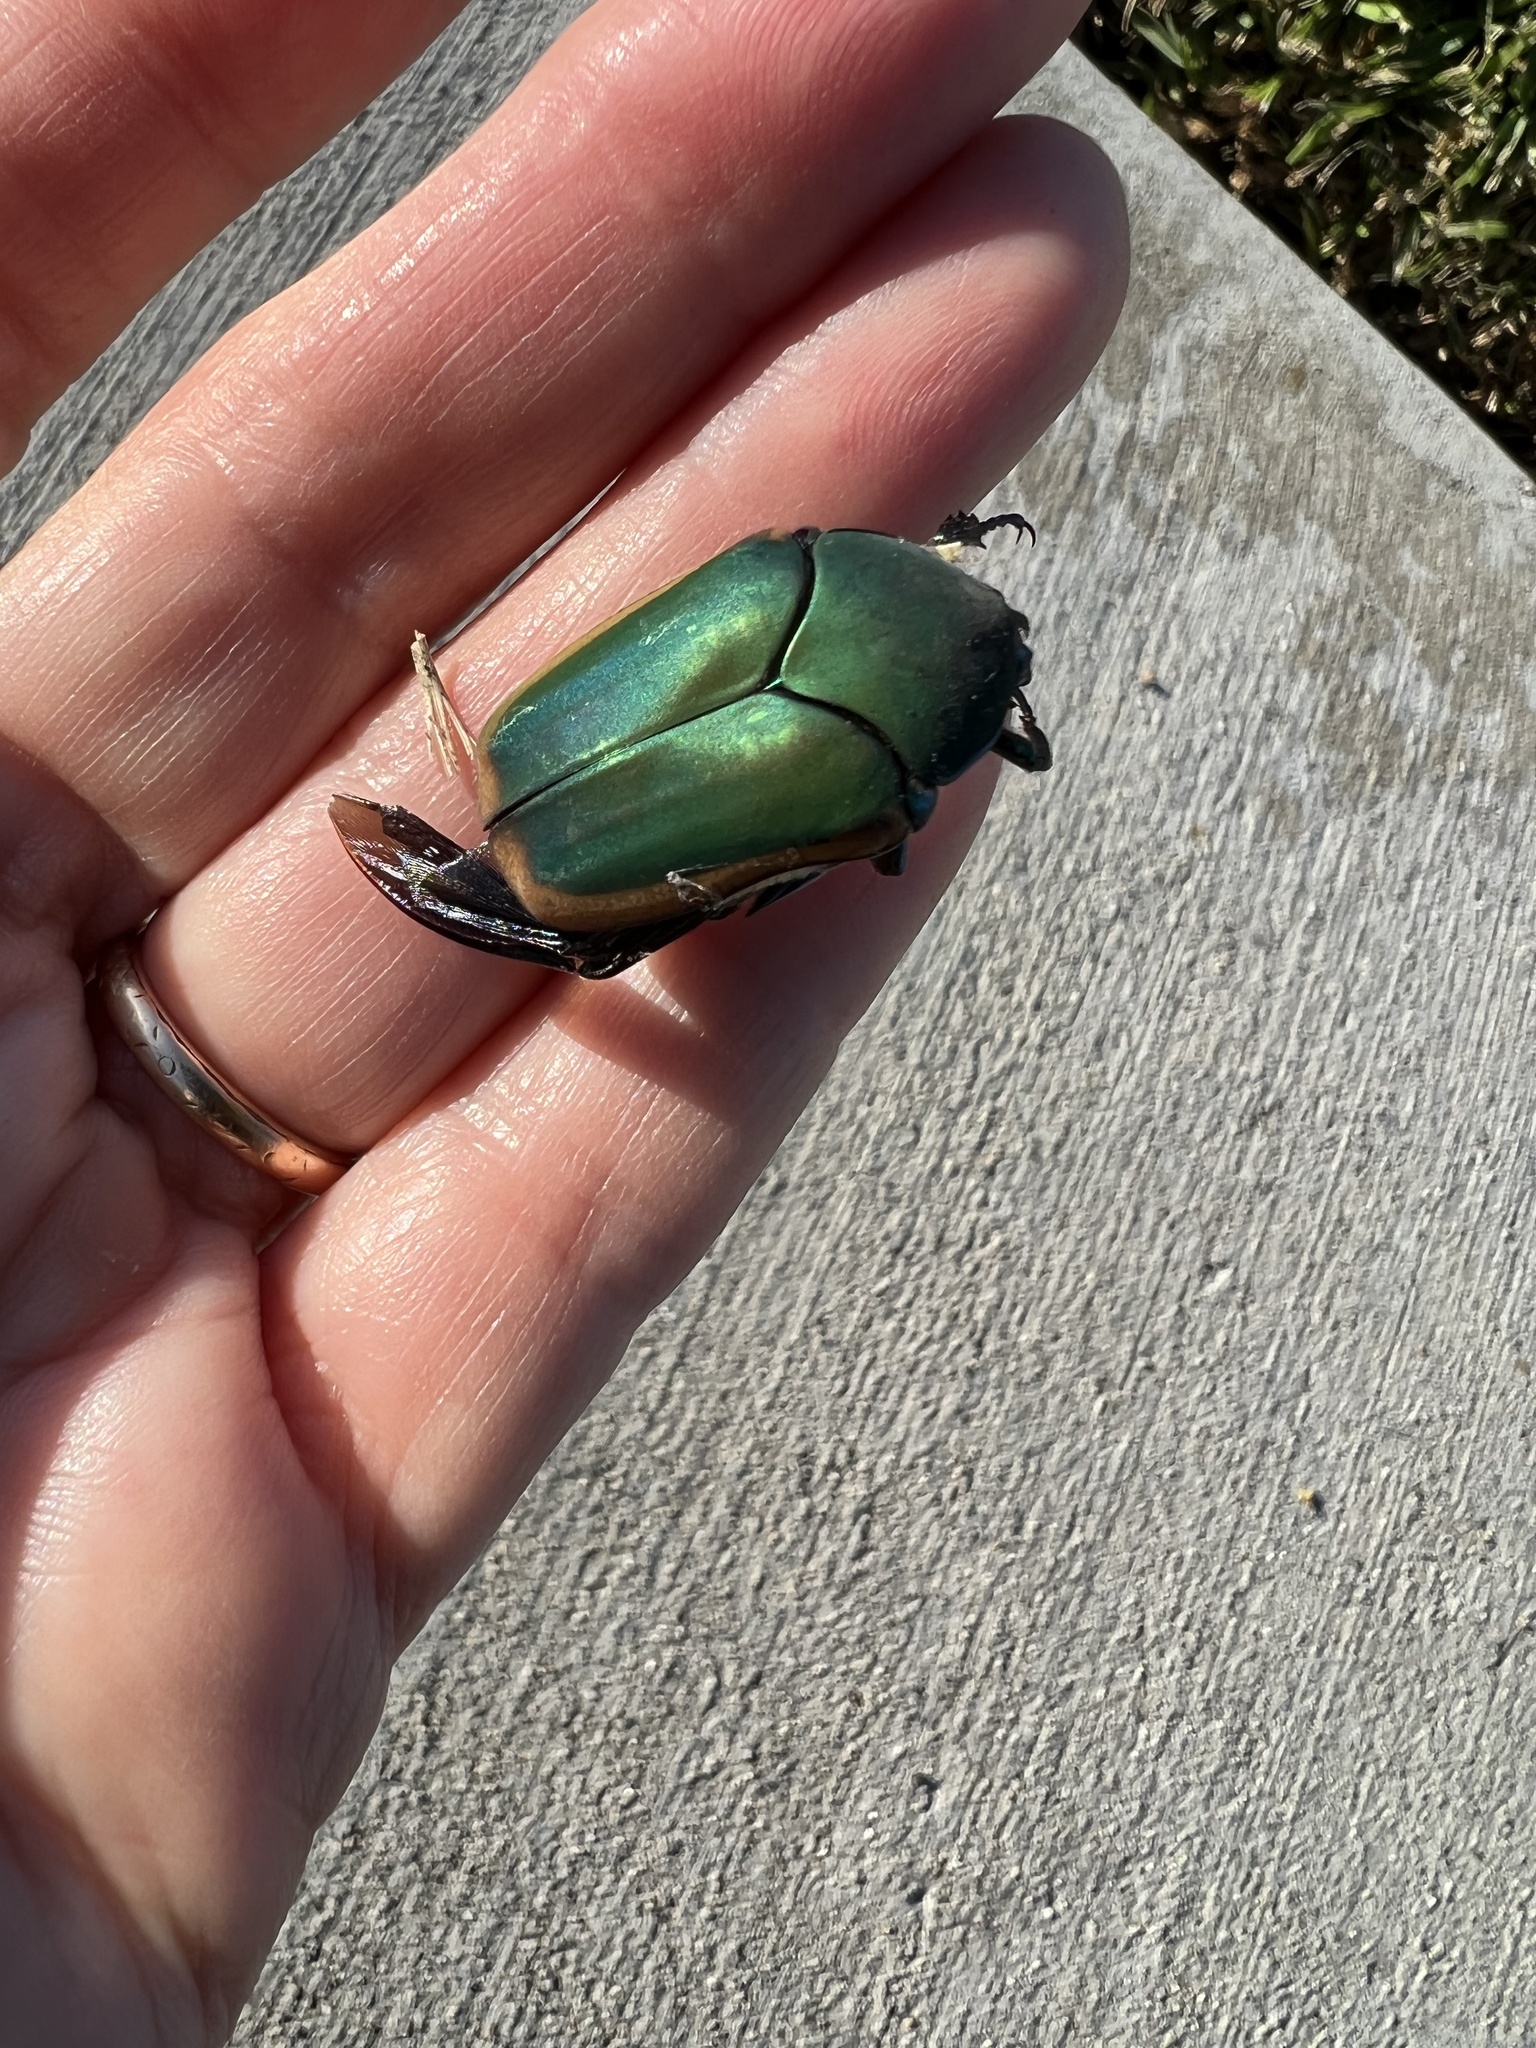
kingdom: Animalia
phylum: Arthropoda
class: Insecta
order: Coleoptera
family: Scarabaeidae
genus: Cotinis
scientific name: Cotinis mutabilis
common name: Figeater beetle
